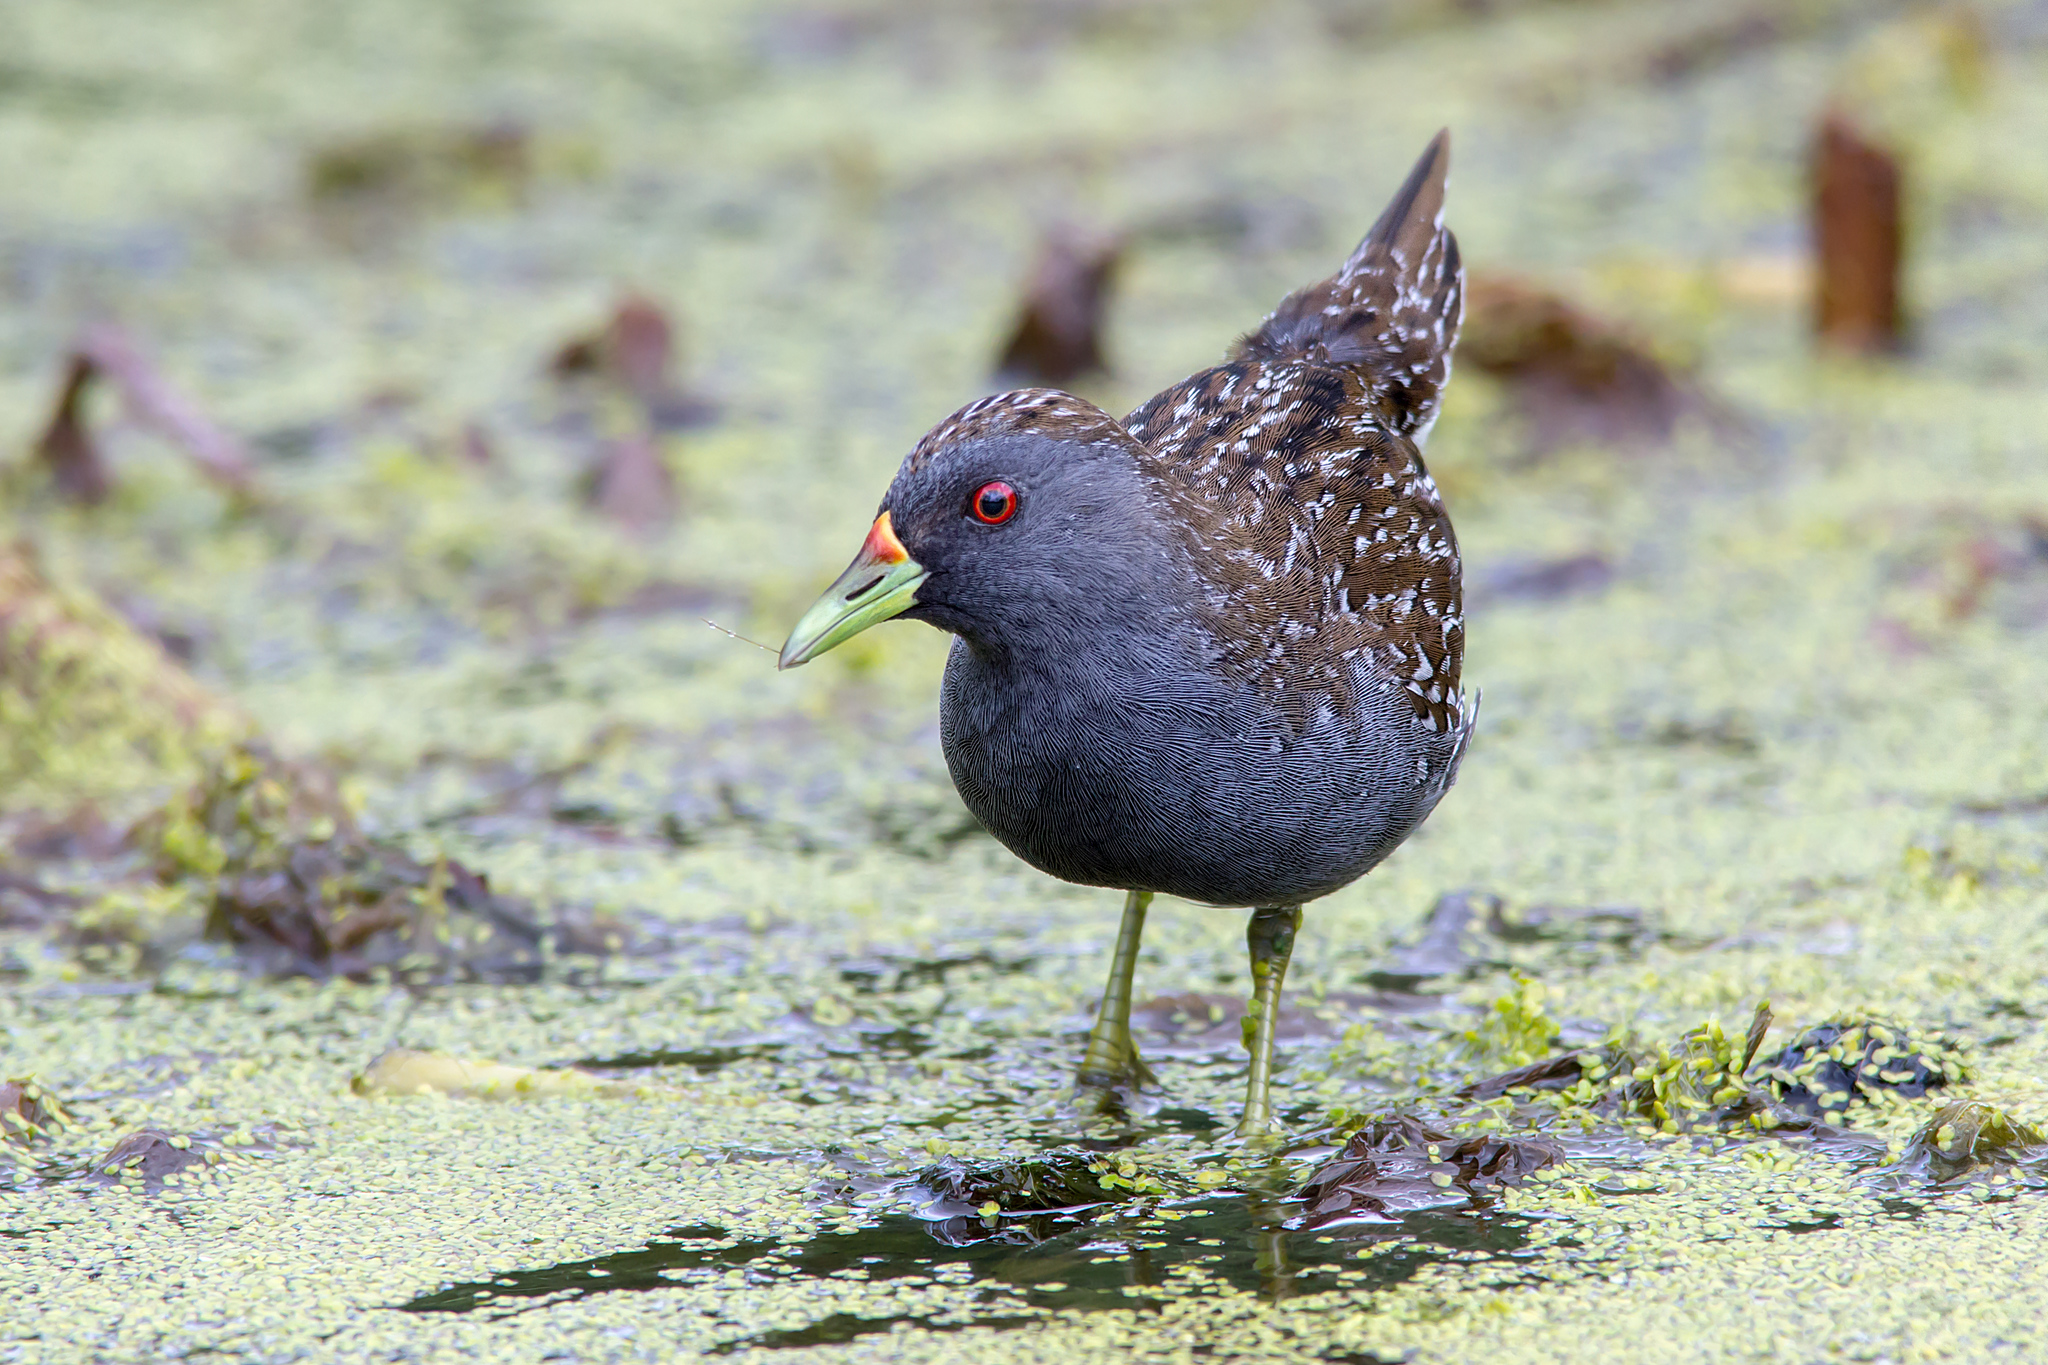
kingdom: Animalia
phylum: Chordata
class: Aves
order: Gruiformes
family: Rallidae
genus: Porzana
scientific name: Porzana fluminea
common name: Australian crake
